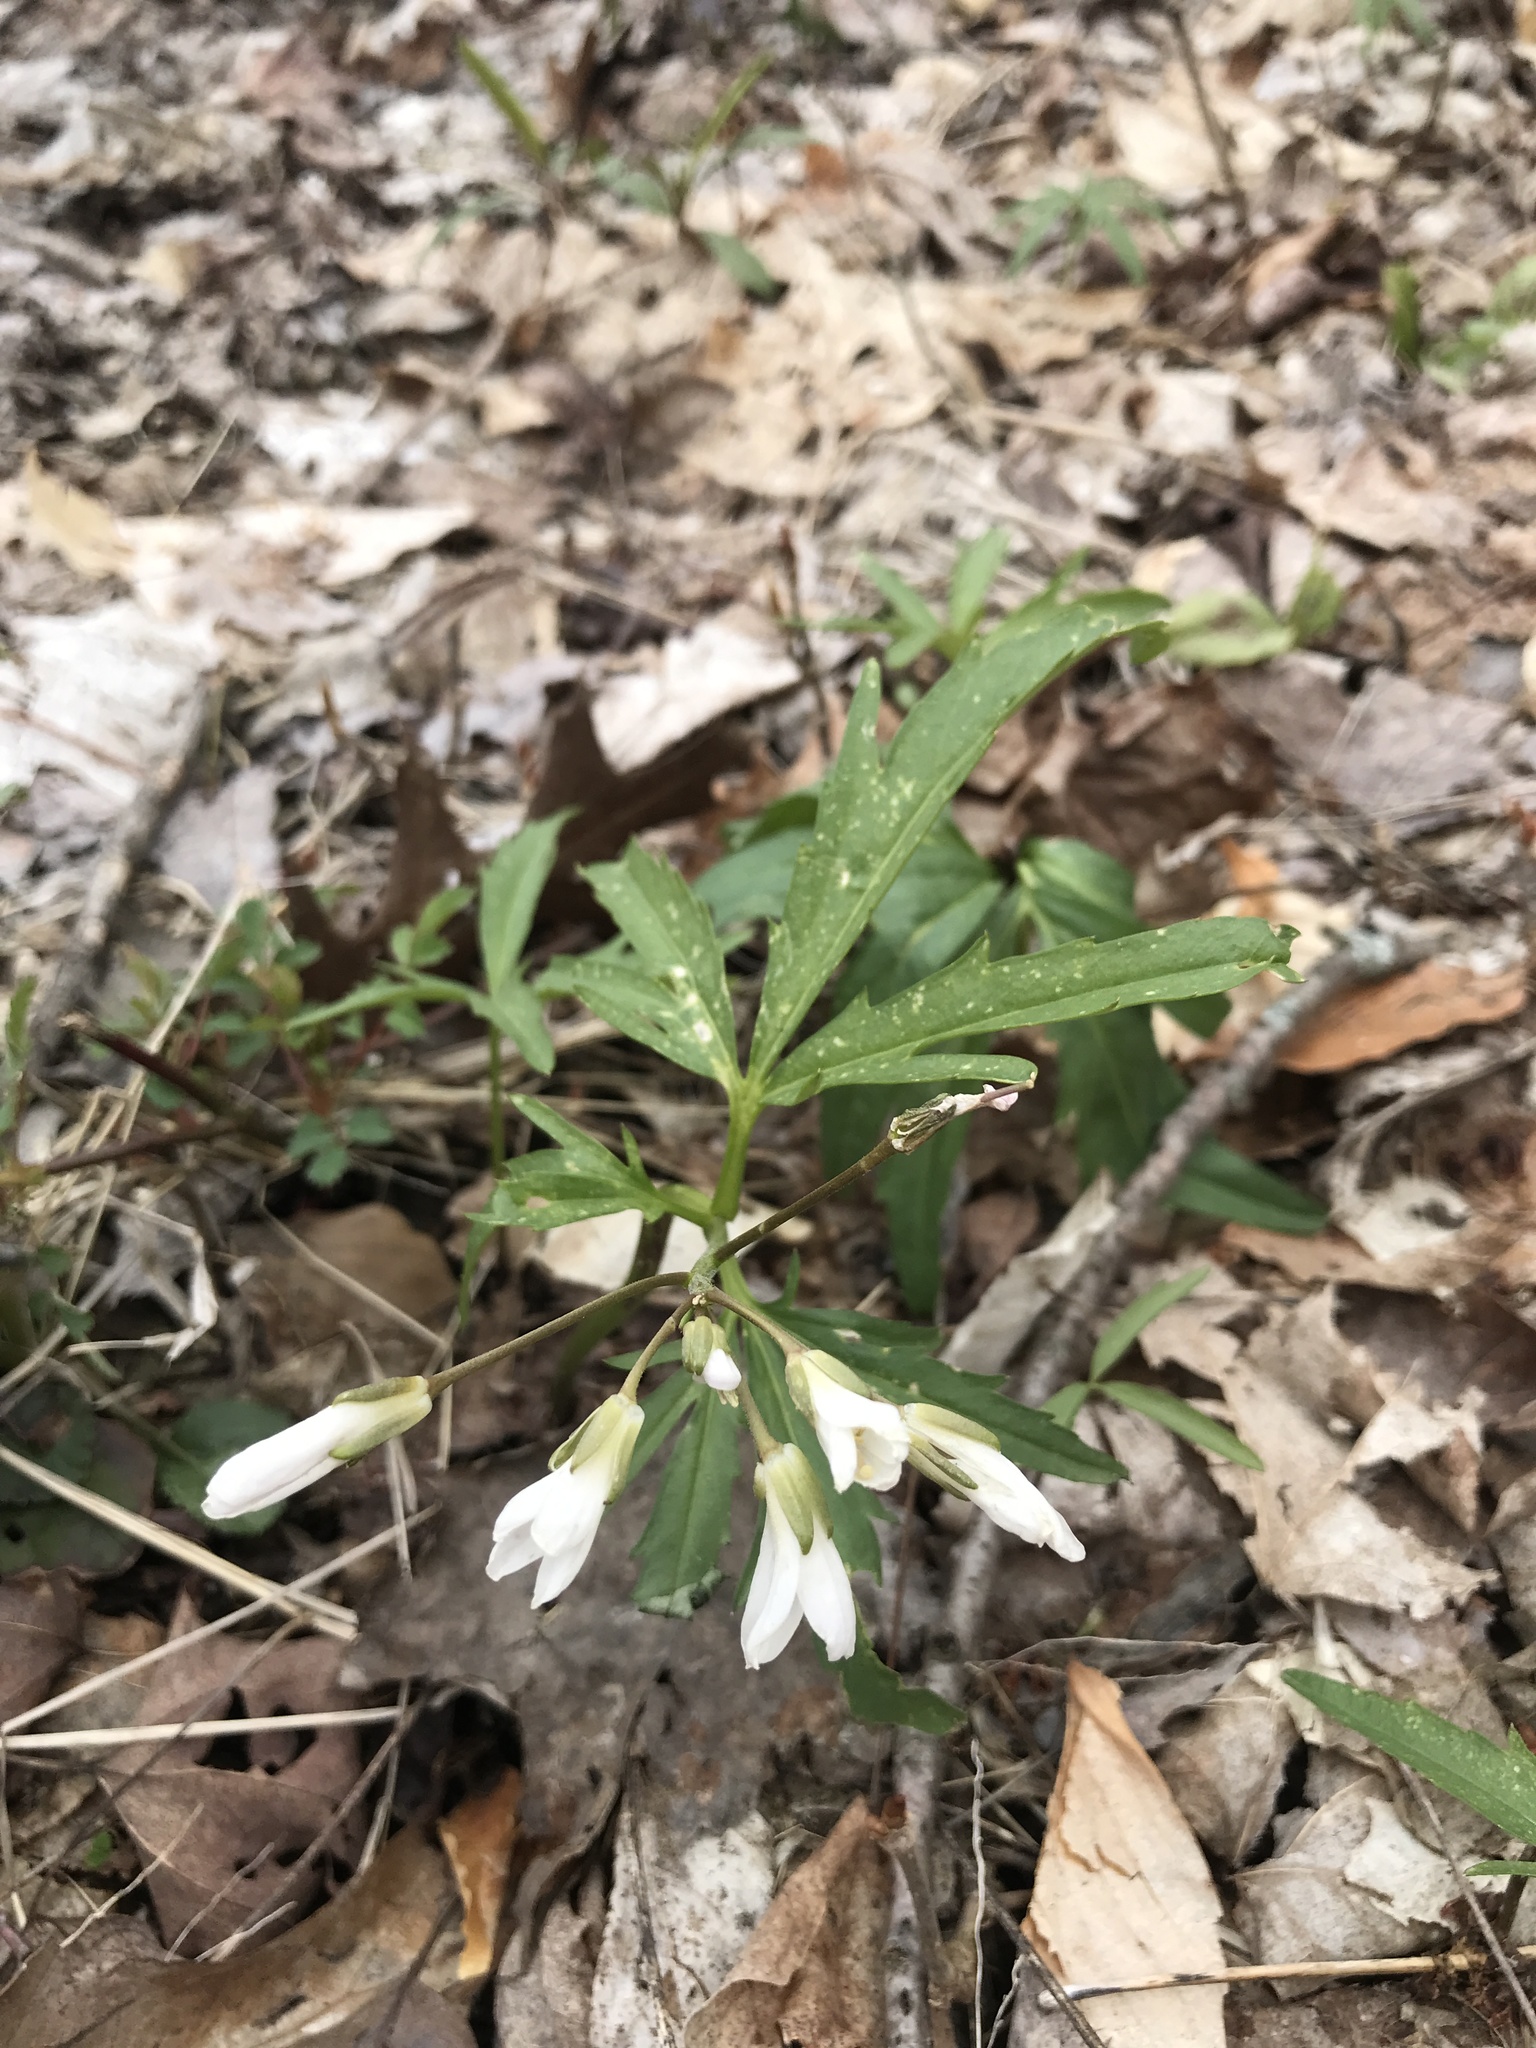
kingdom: Plantae
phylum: Tracheophyta
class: Magnoliopsida
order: Brassicales
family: Brassicaceae
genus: Cardamine
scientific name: Cardamine concatenata
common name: Cut-leaf toothcup
